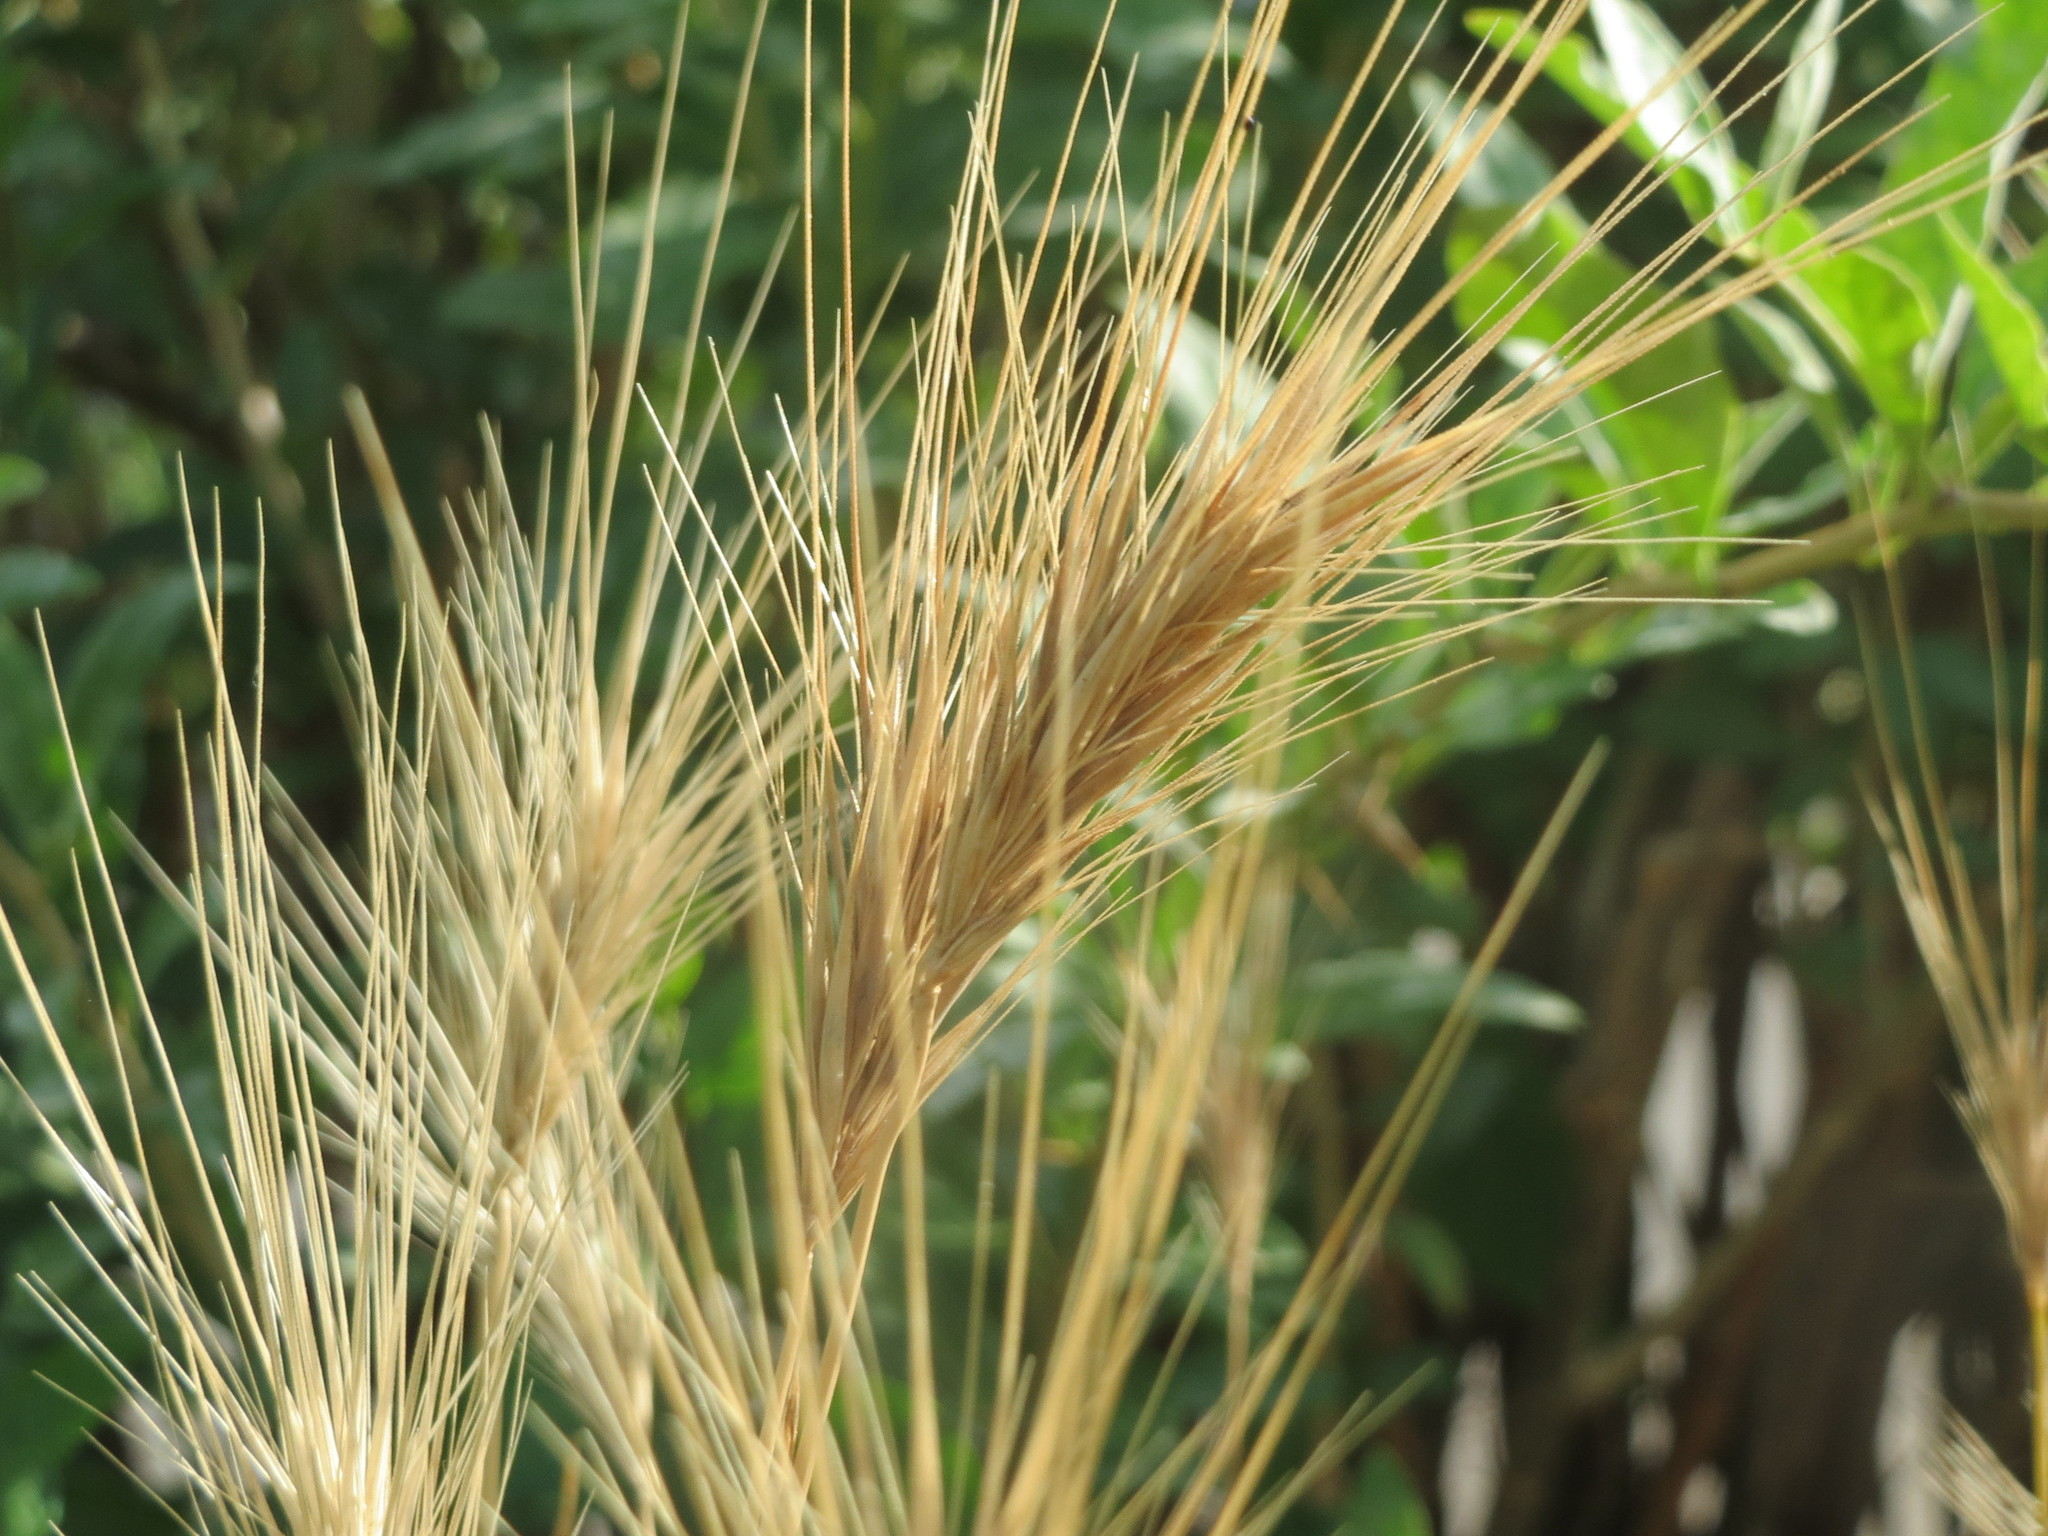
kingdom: Plantae
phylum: Tracheophyta
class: Liliopsida
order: Poales
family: Poaceae
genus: Hordeum
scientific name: Hordeum murinum
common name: Wall barley
